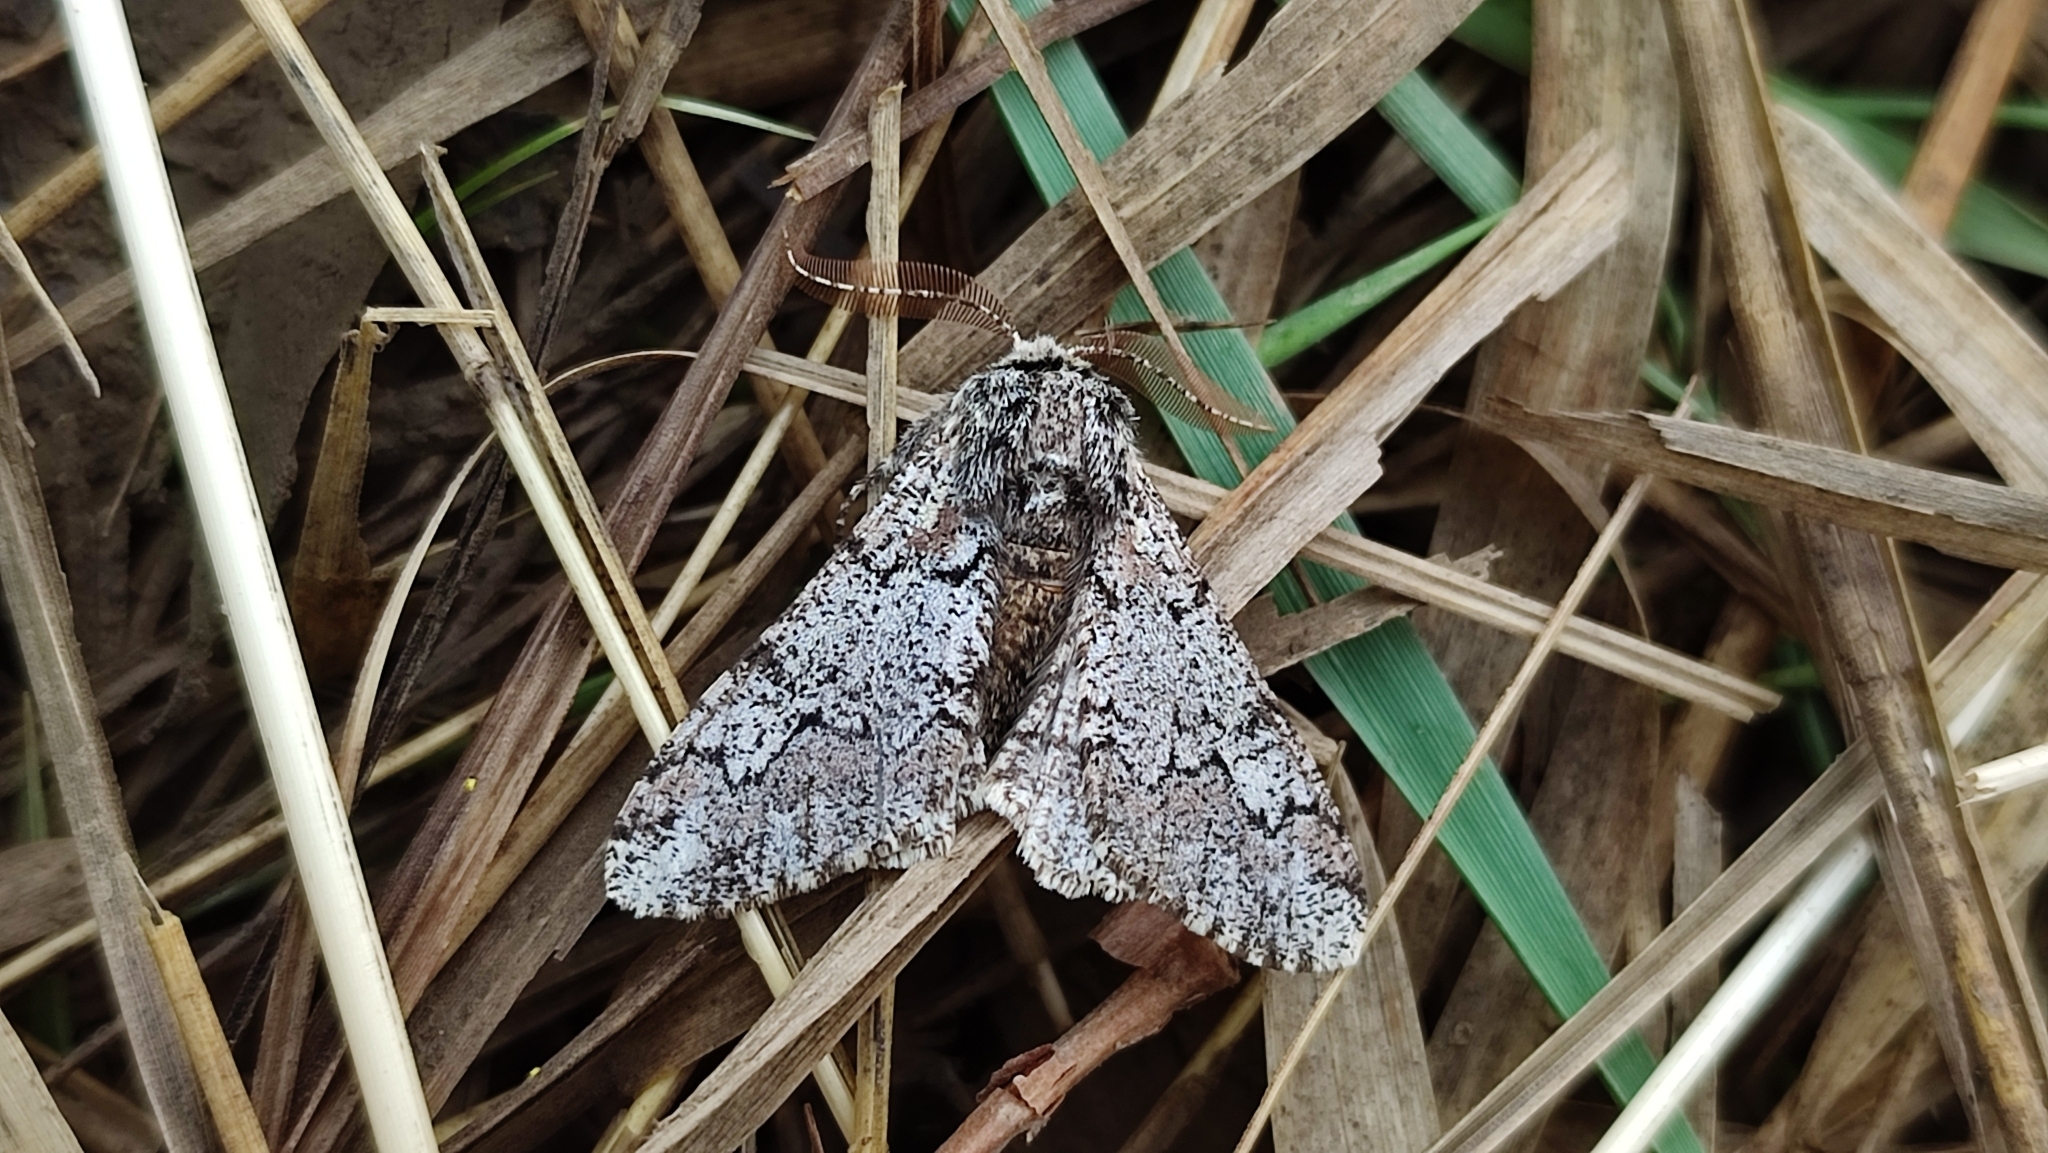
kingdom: Animalia
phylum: Arthropoda
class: Insecta
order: Lepidoptera
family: Geometridae
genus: Biston
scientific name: Biston strataria
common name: Oak beauty
